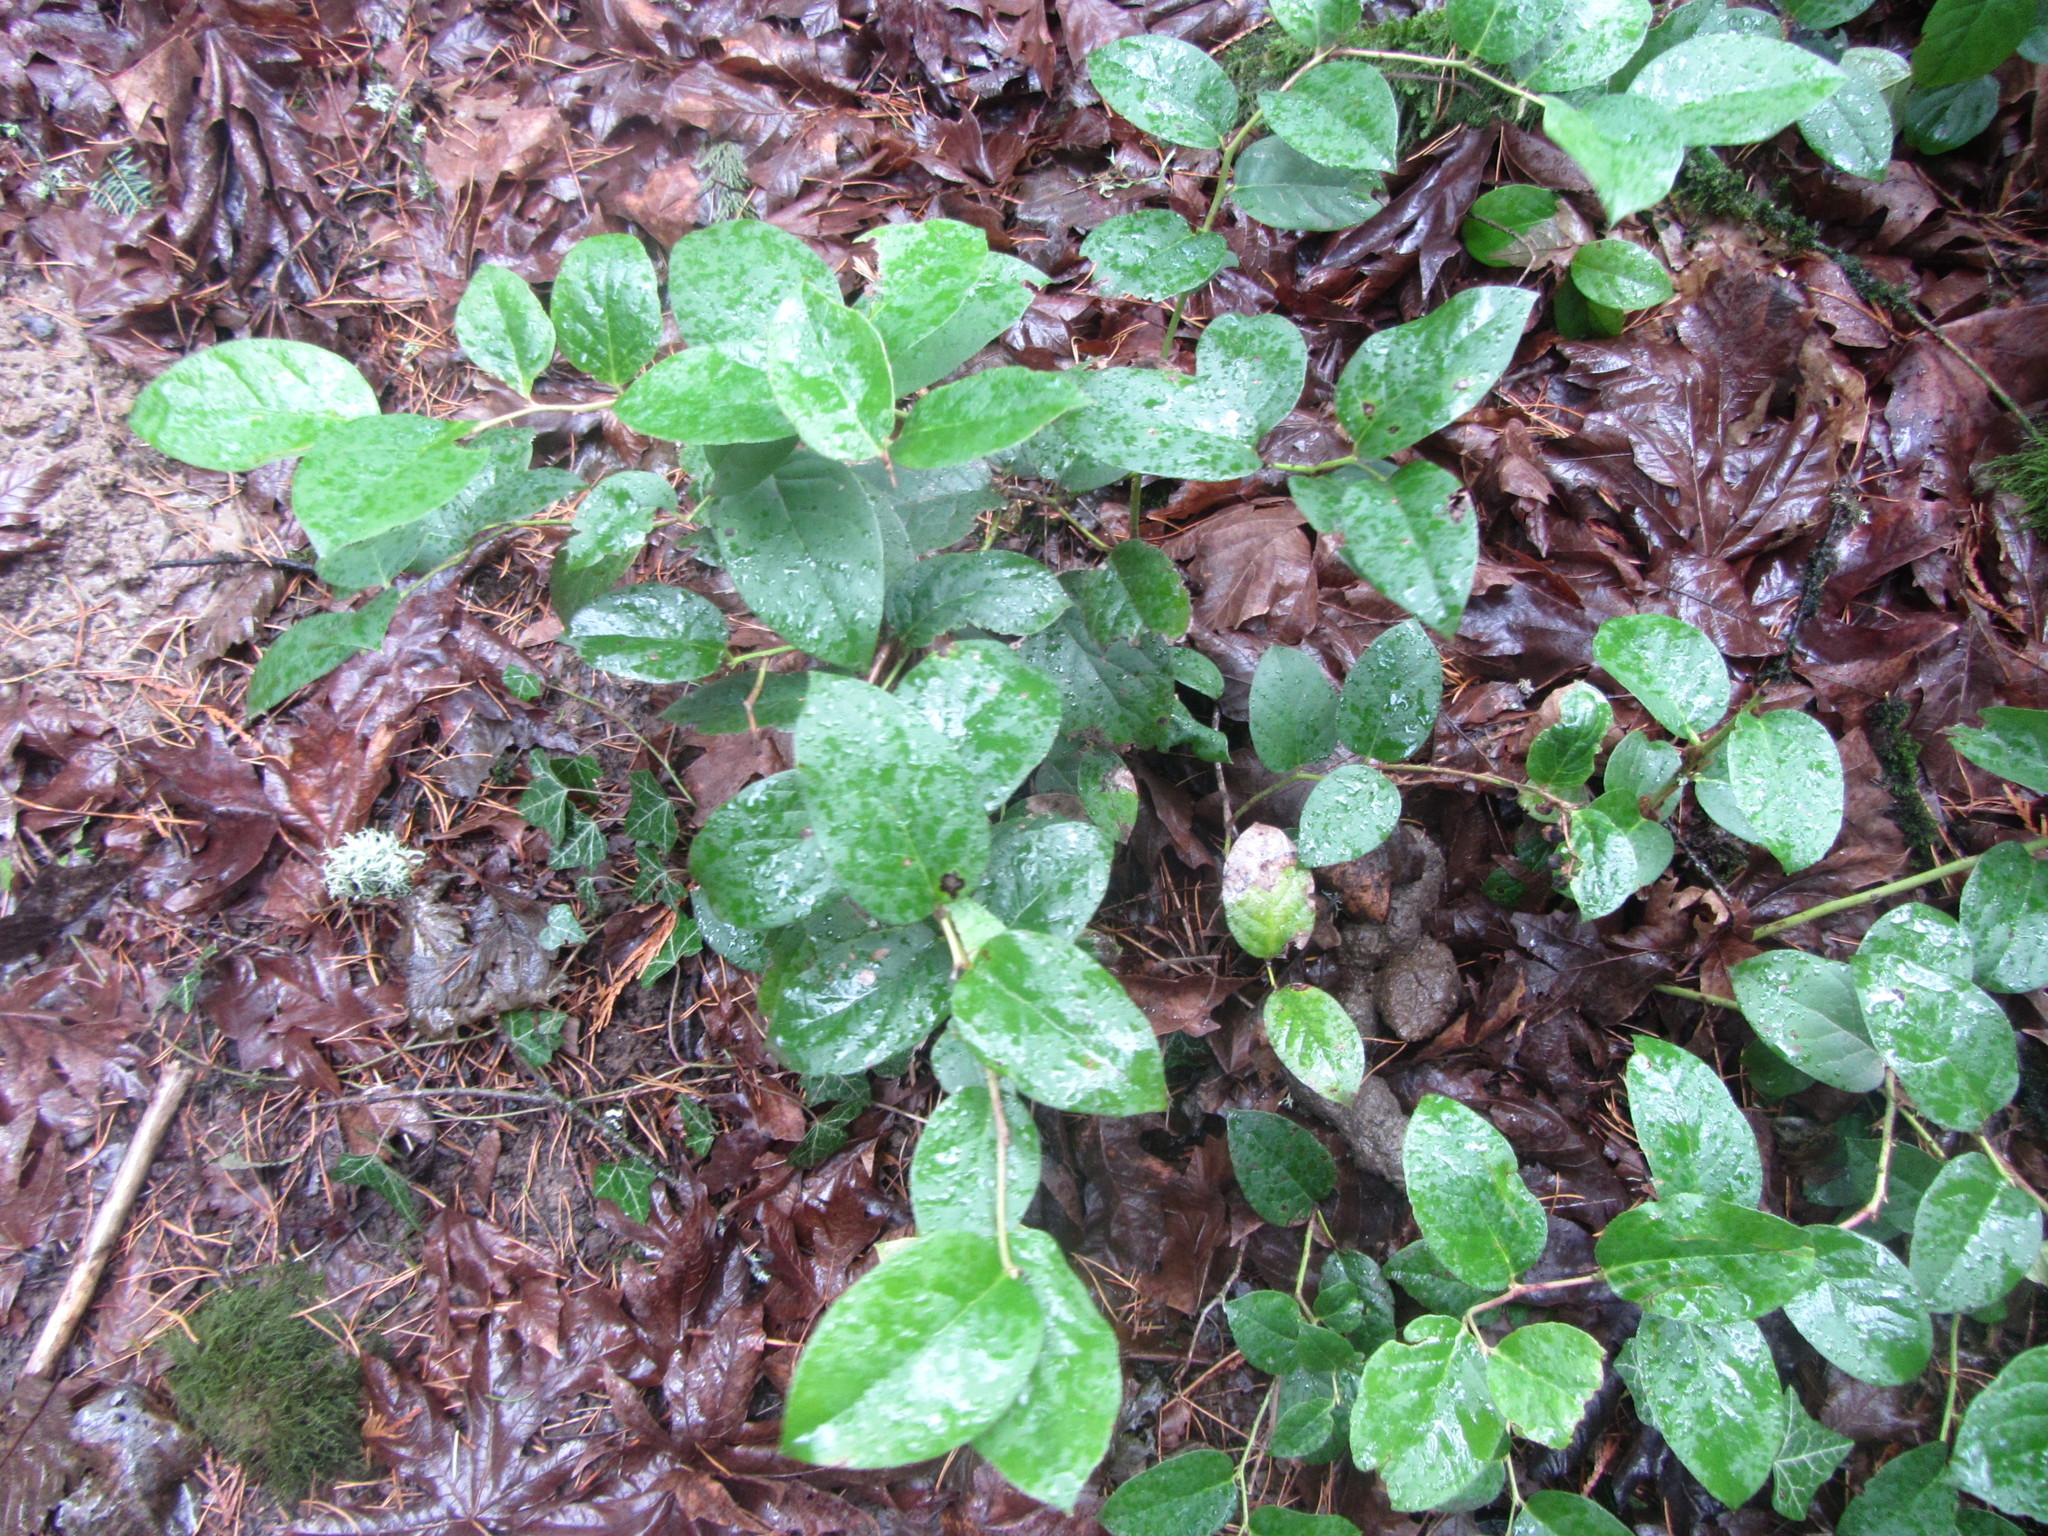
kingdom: Plantae
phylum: Tracheophyta
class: Magnoliopsida
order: Ericales
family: Ericaceae
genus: Gaultheria
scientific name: Gaultheria shallon
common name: Shallon
